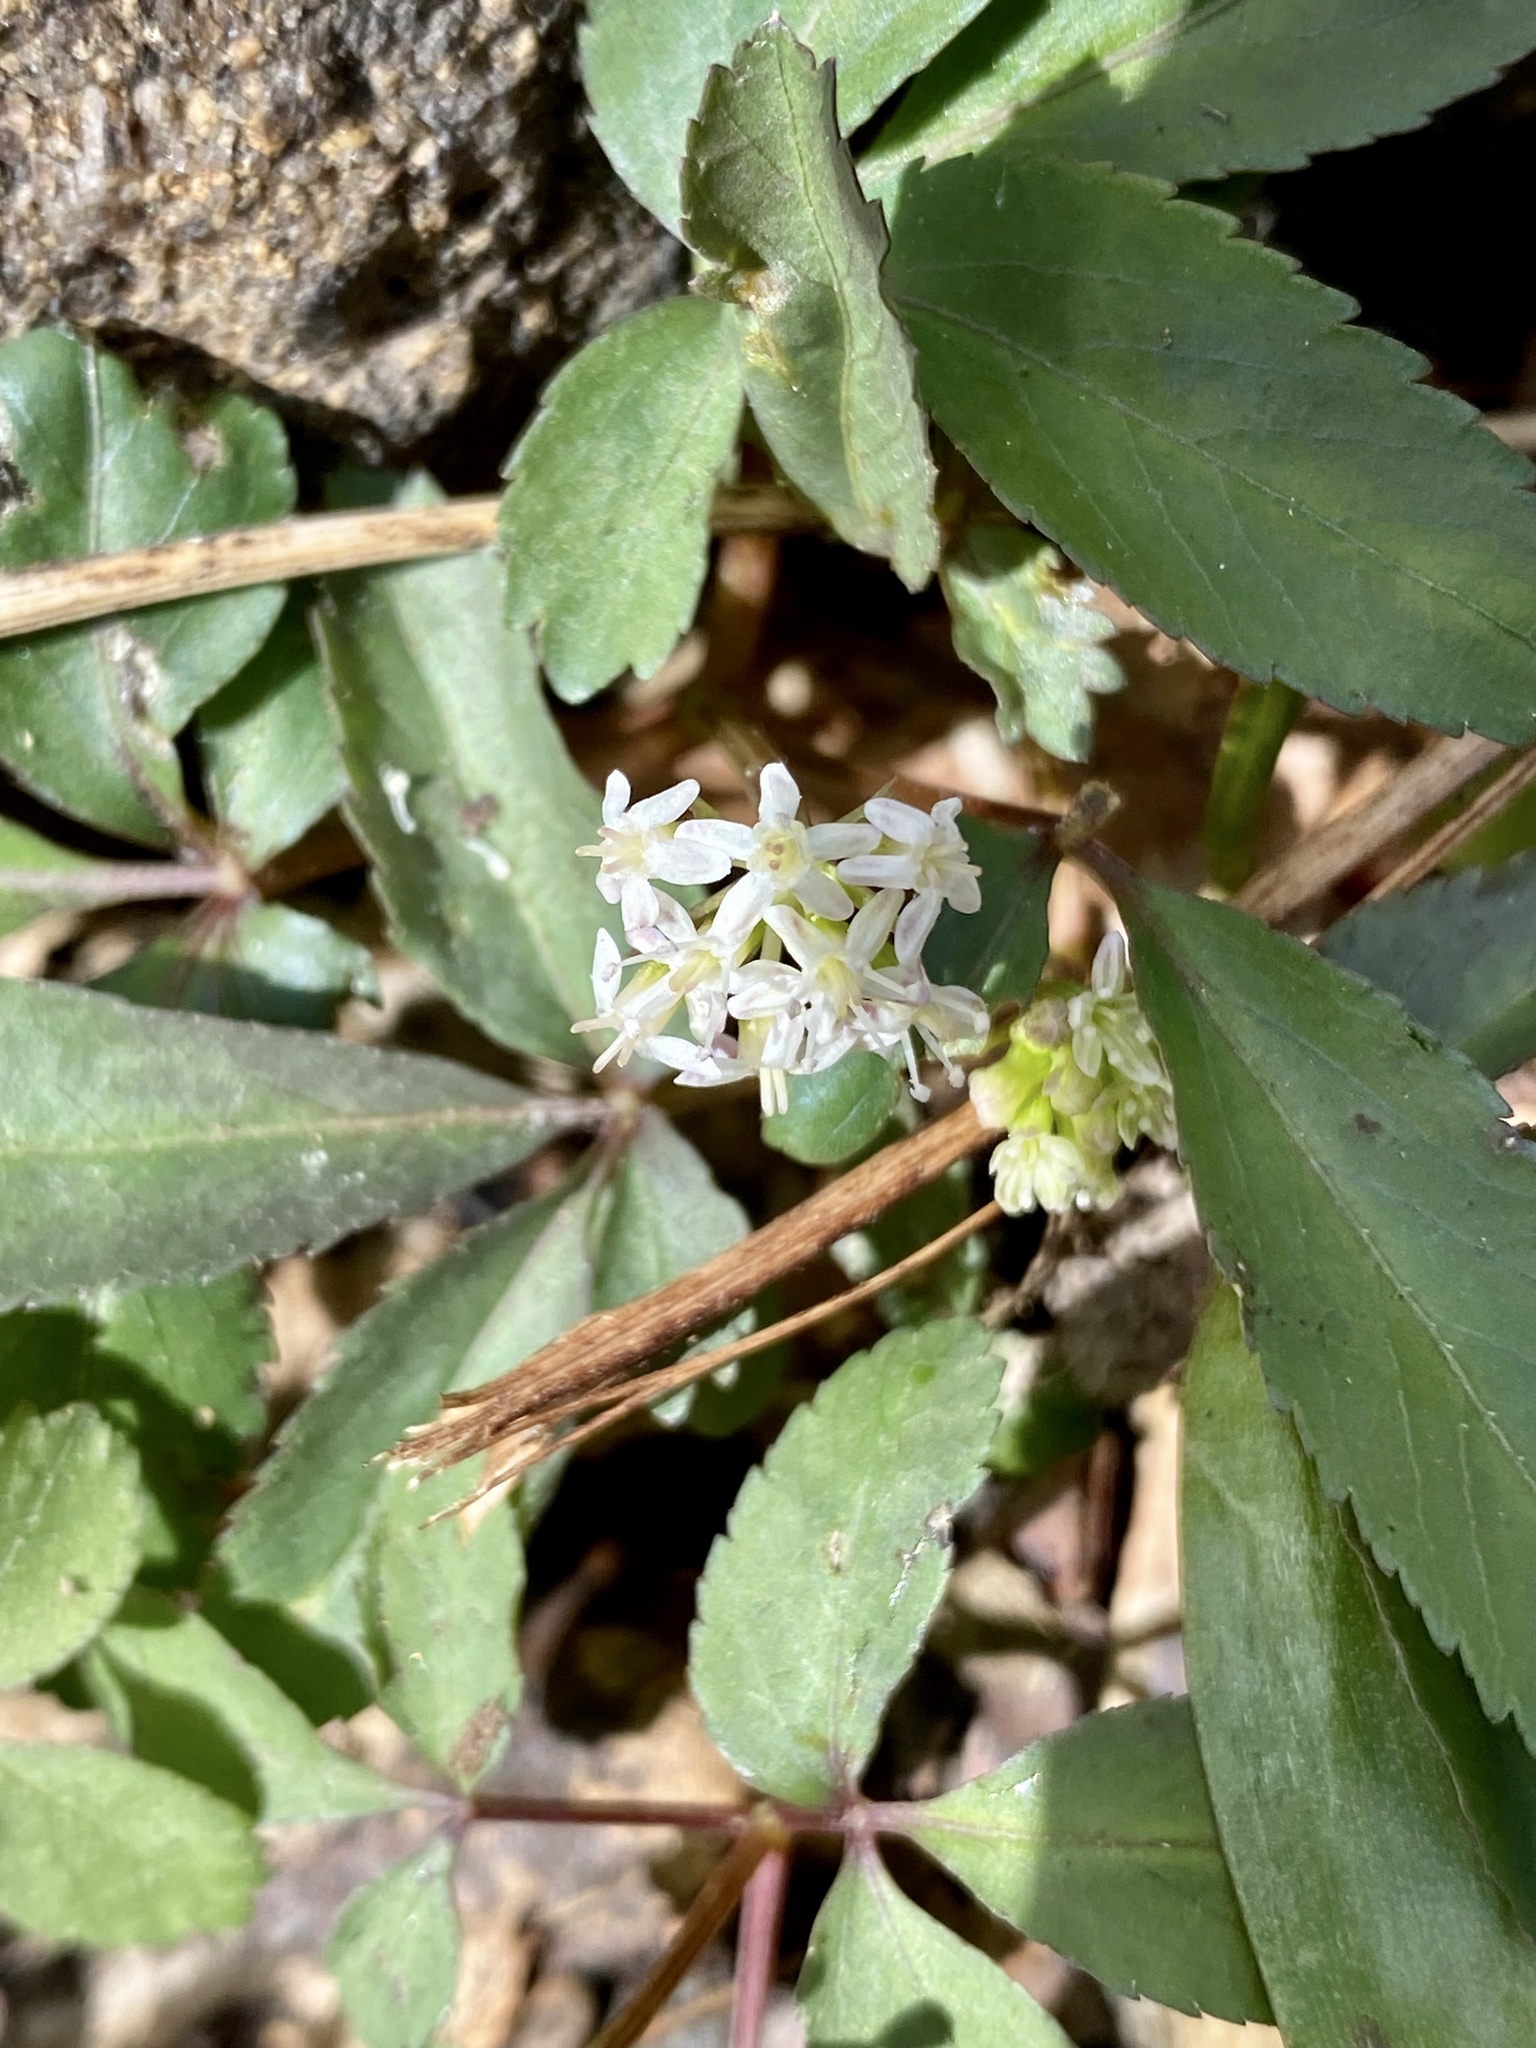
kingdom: Plantae
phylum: Tracheophyta
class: Magnoliopsida
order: Apiales
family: Araliaceae
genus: Panax
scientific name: Panax trifolius
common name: Dwarf ginseng
